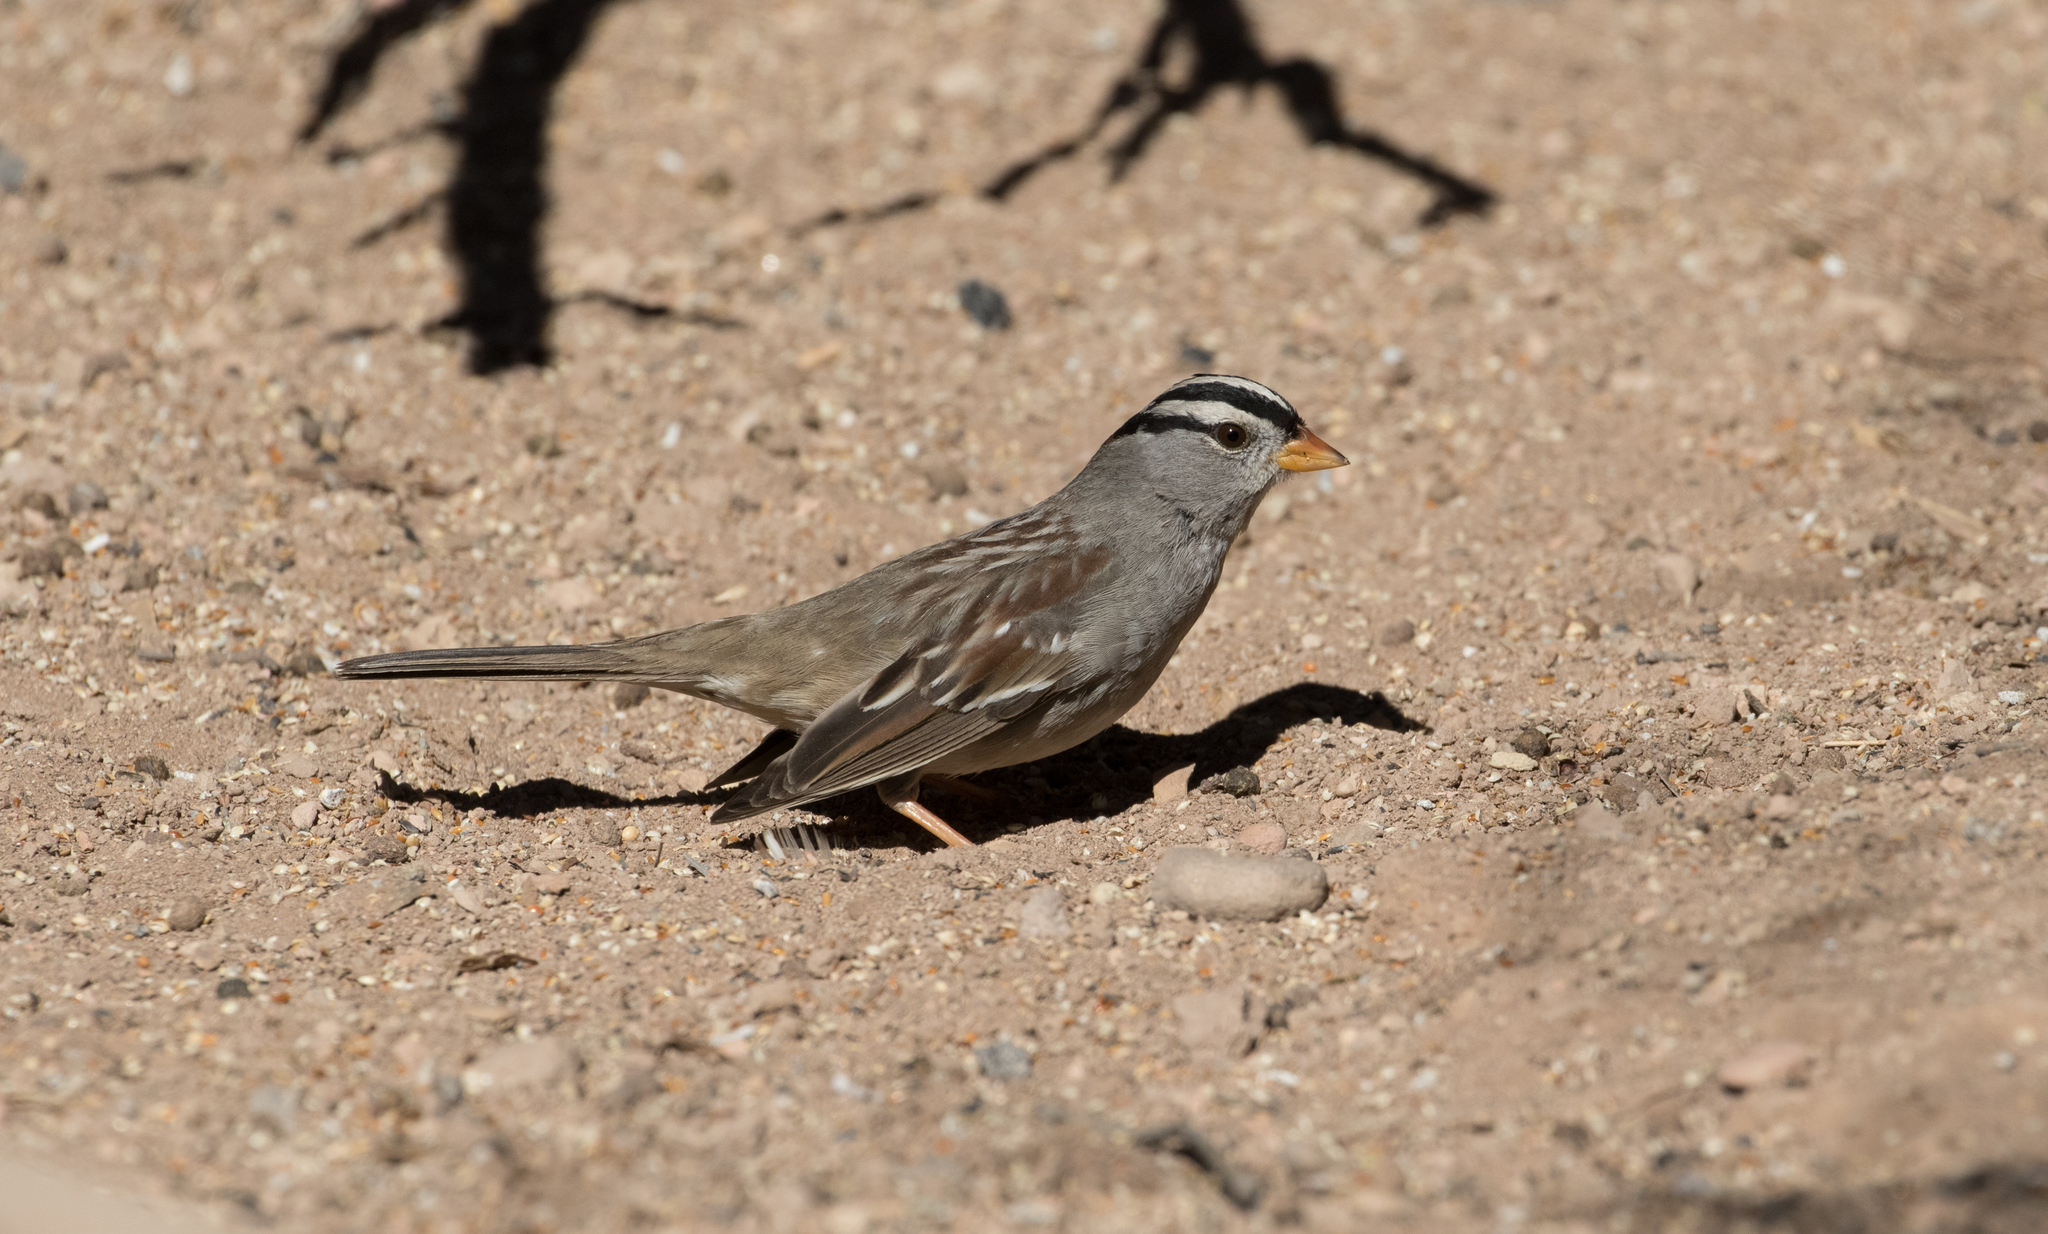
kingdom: Animalia
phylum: Chordata
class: Aves
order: Passeriformes
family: Passerellidae
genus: Zonotrichia
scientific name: Zonotrichia leucophrys
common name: White-crowned sparrow
